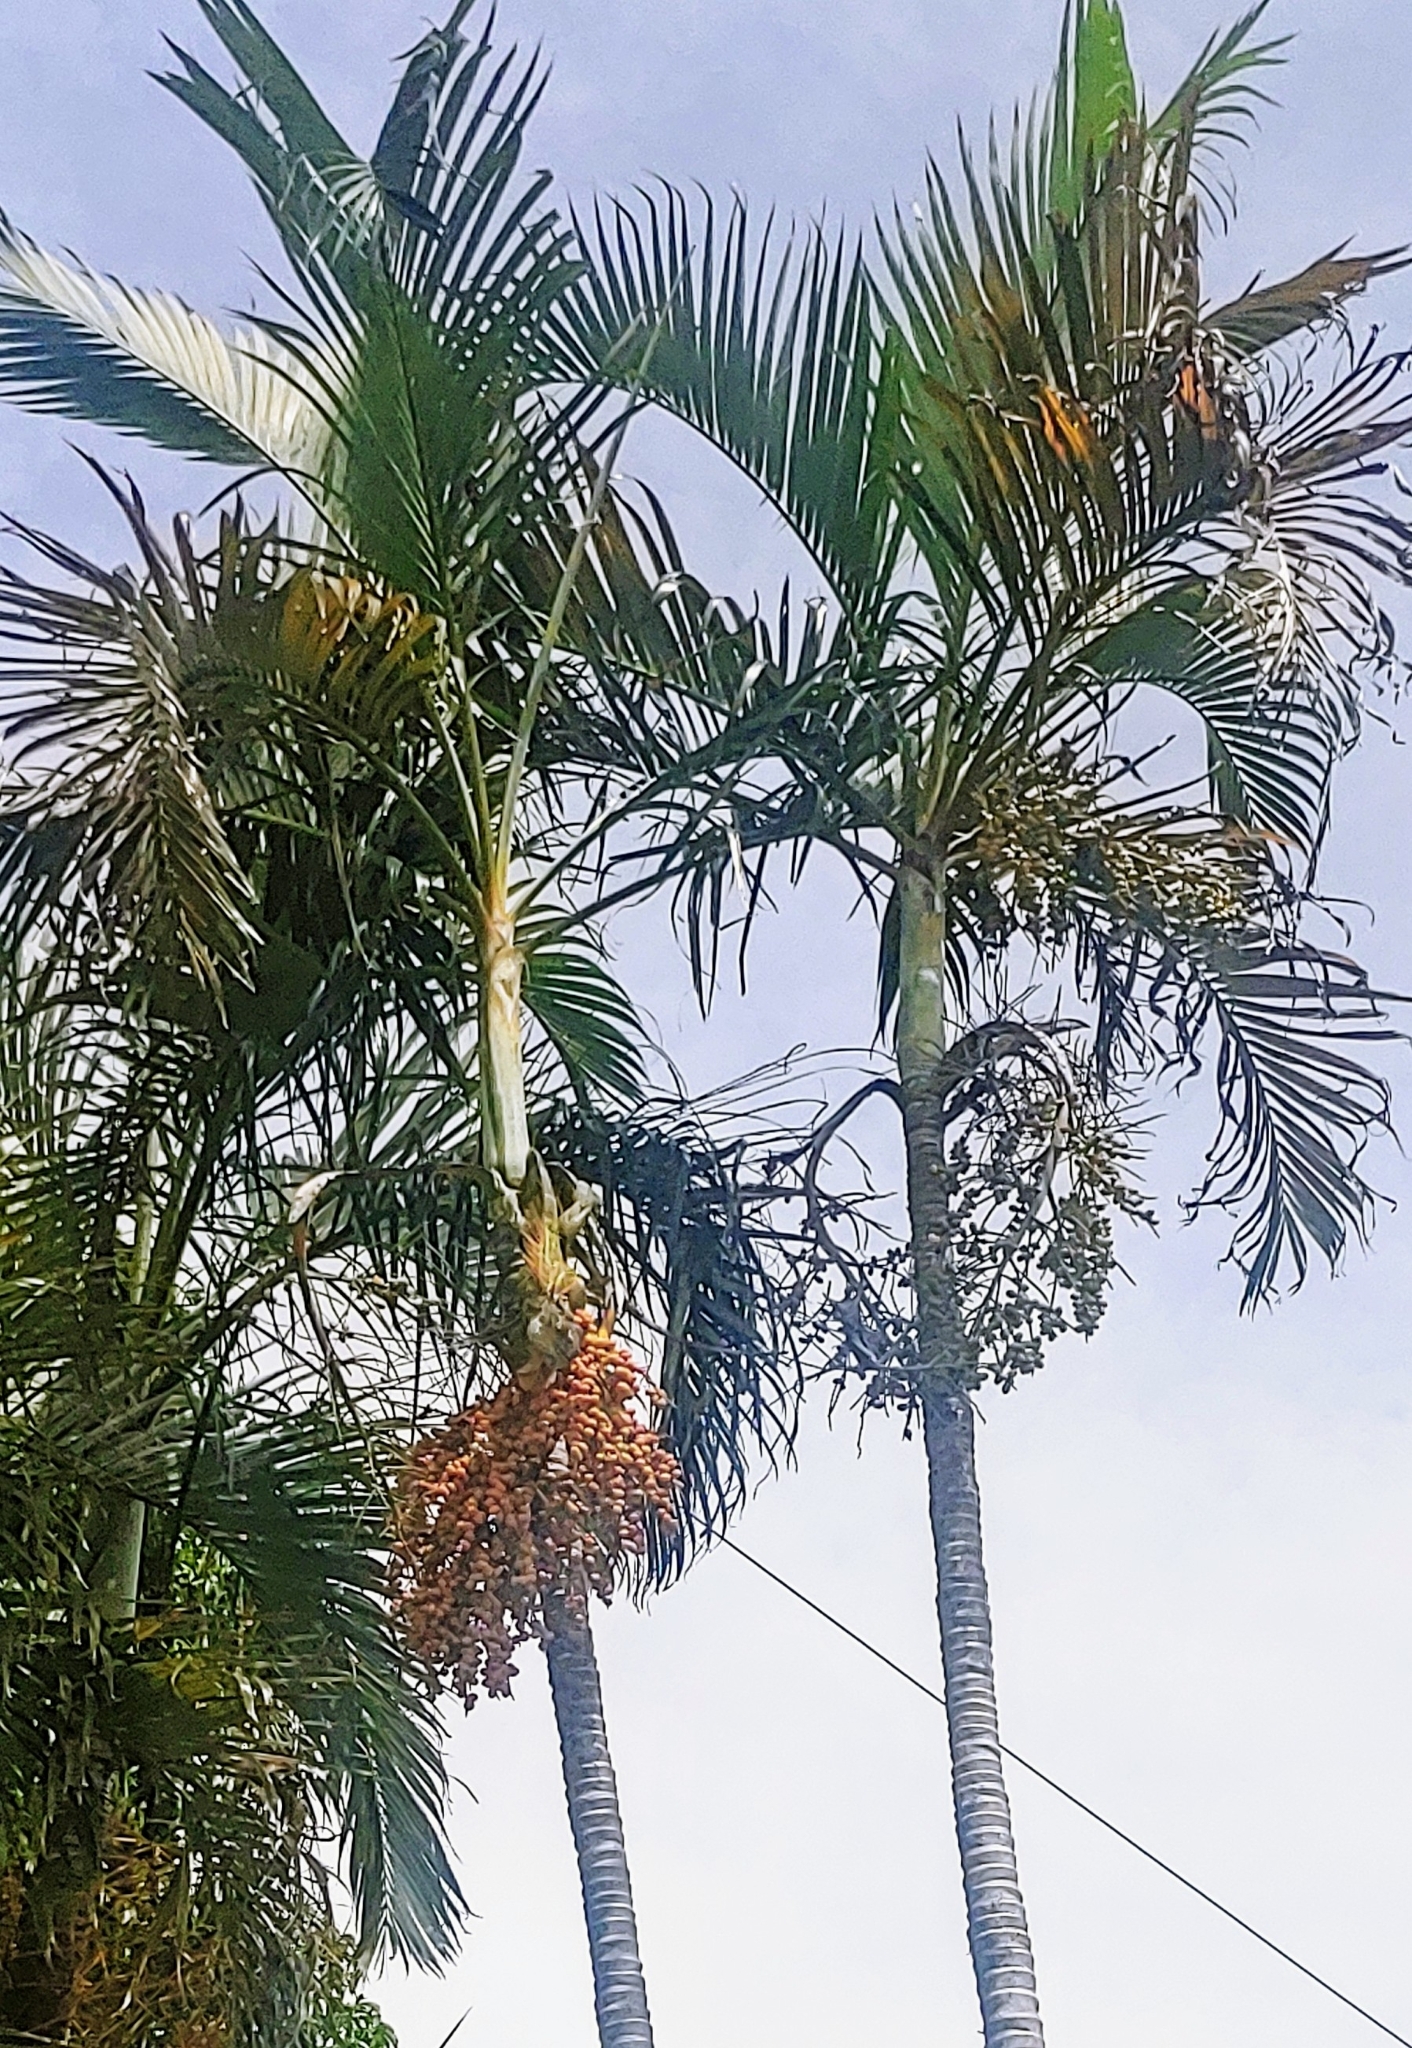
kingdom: Animalia
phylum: Chordata
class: Squamata
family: Iguanidae
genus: Iguana
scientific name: Iguana iguana
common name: Green iguana
